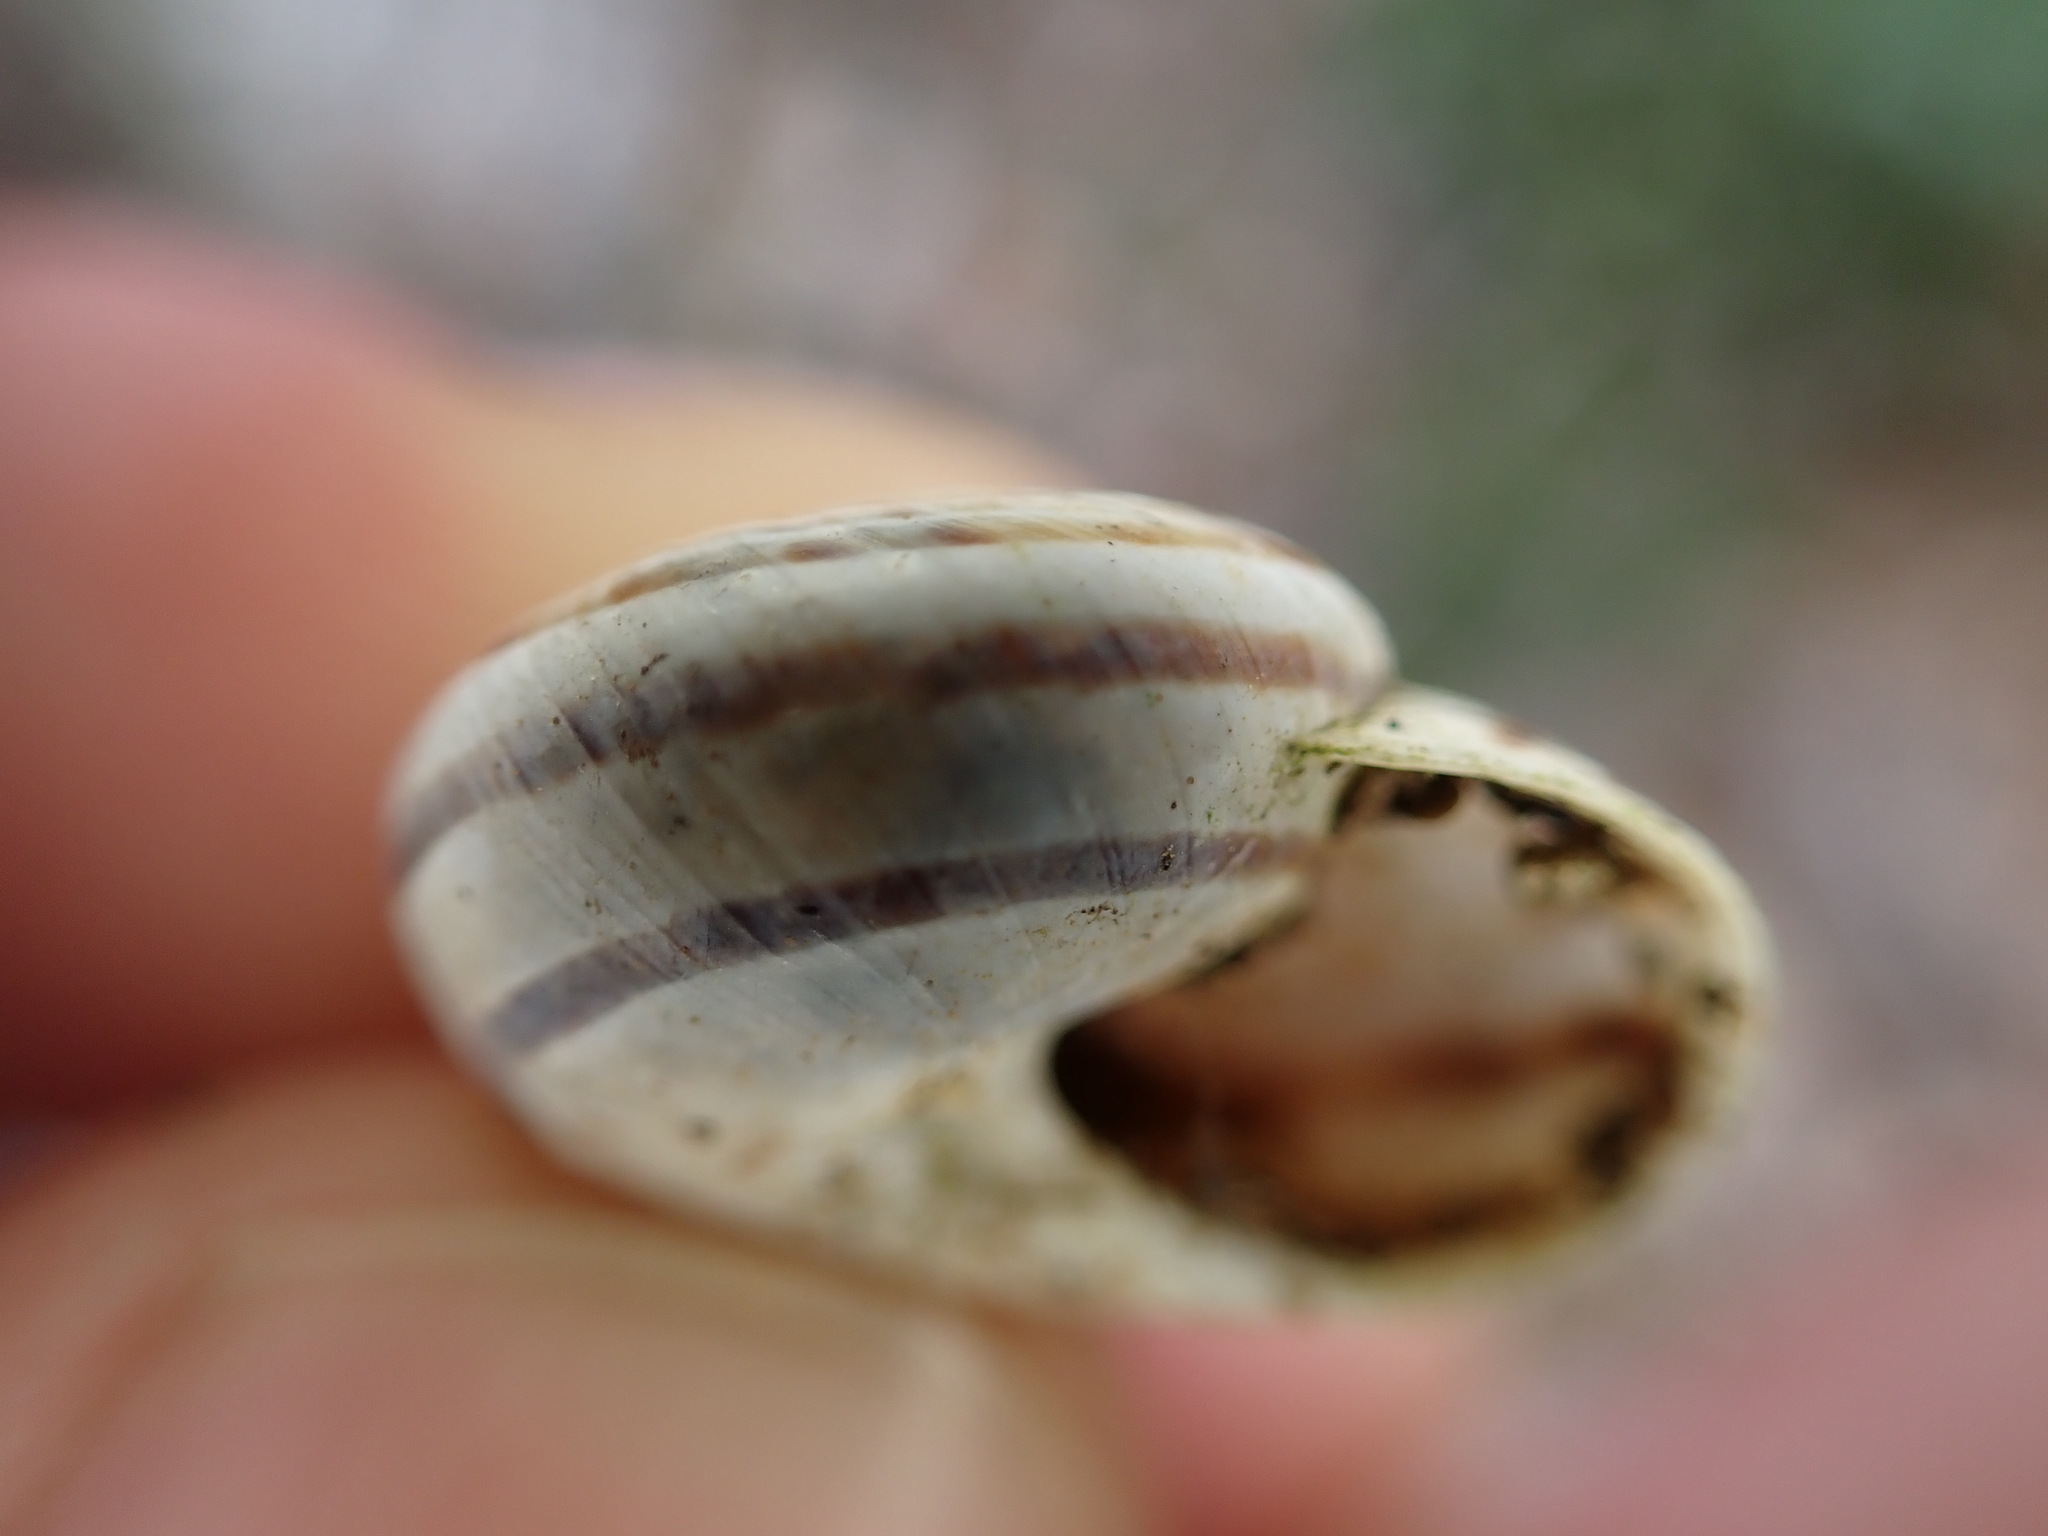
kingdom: Animalia
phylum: Mollusca
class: Gastropoda
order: Stylommatophora
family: Helicidae
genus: Pseudotachea
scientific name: Pseudotachea splendida
